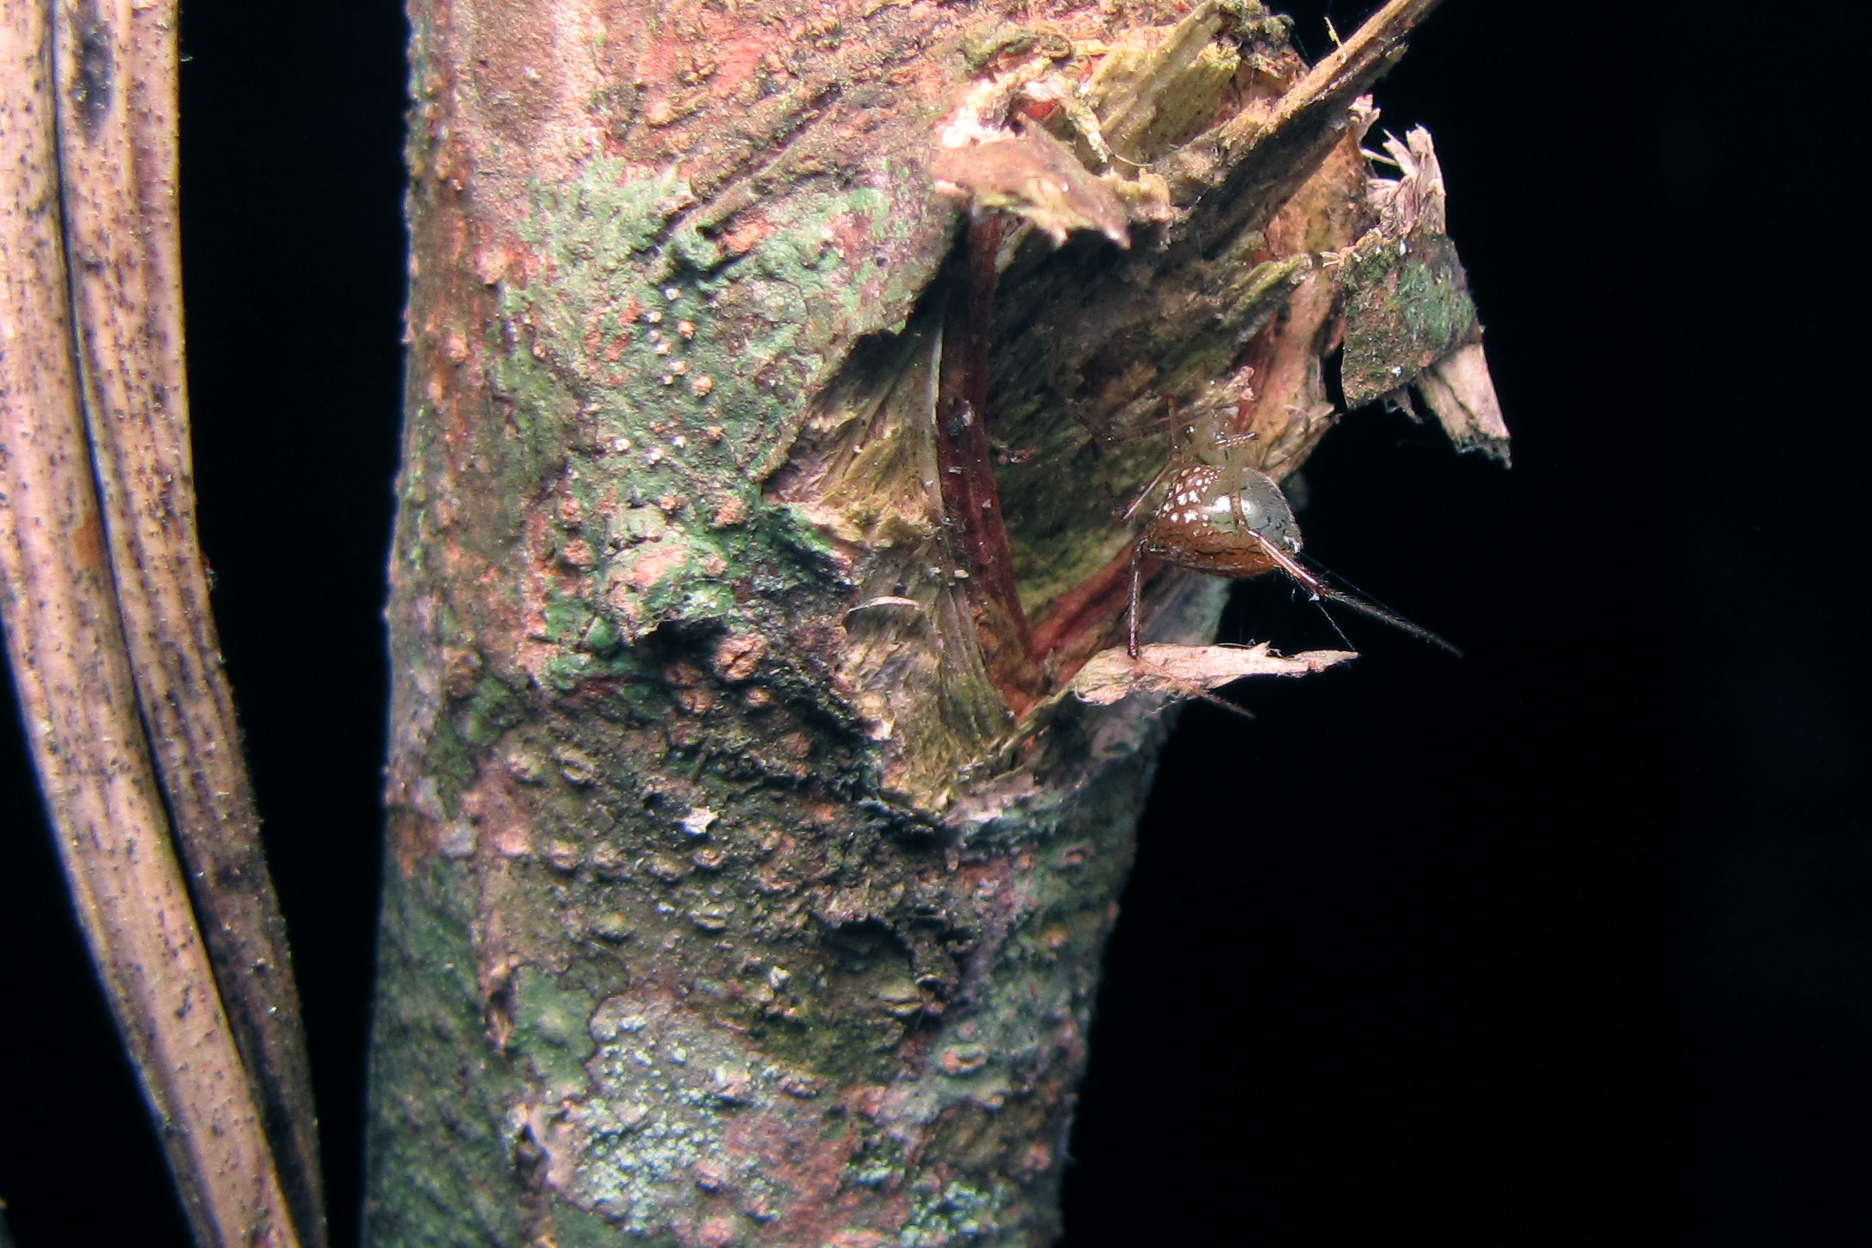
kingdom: Animalia
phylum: Arthropoda
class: Arachnida
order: Araneae
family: Theridiidae
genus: Thwaitesia
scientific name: Thwaitesia affinis
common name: Cobweb spiders
